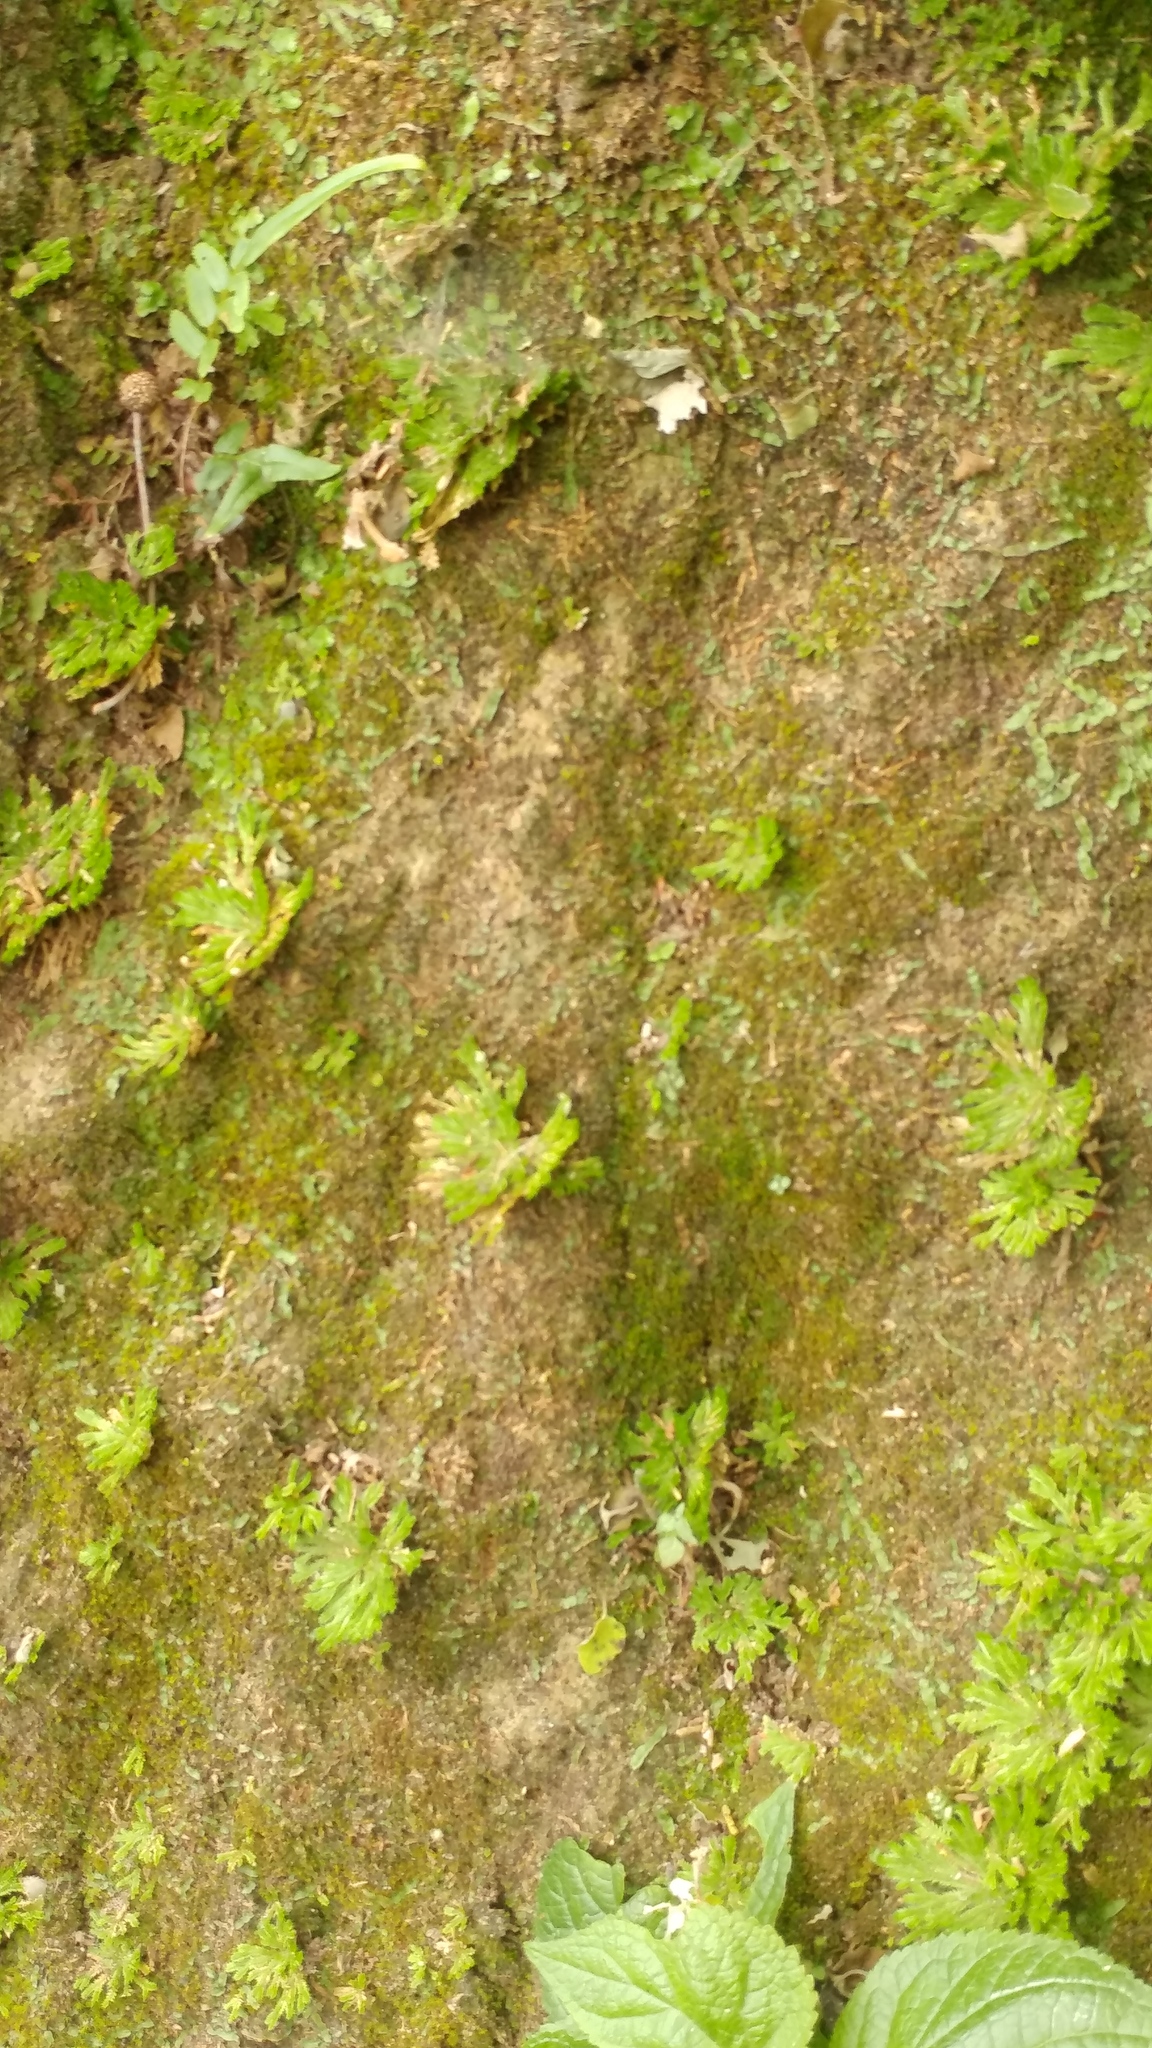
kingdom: Plantae
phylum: Tracheophyta
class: Lycopodiopsida
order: Selaginellales
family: Selaginellaceae
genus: Selaginella
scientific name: Selaginella pilifera
